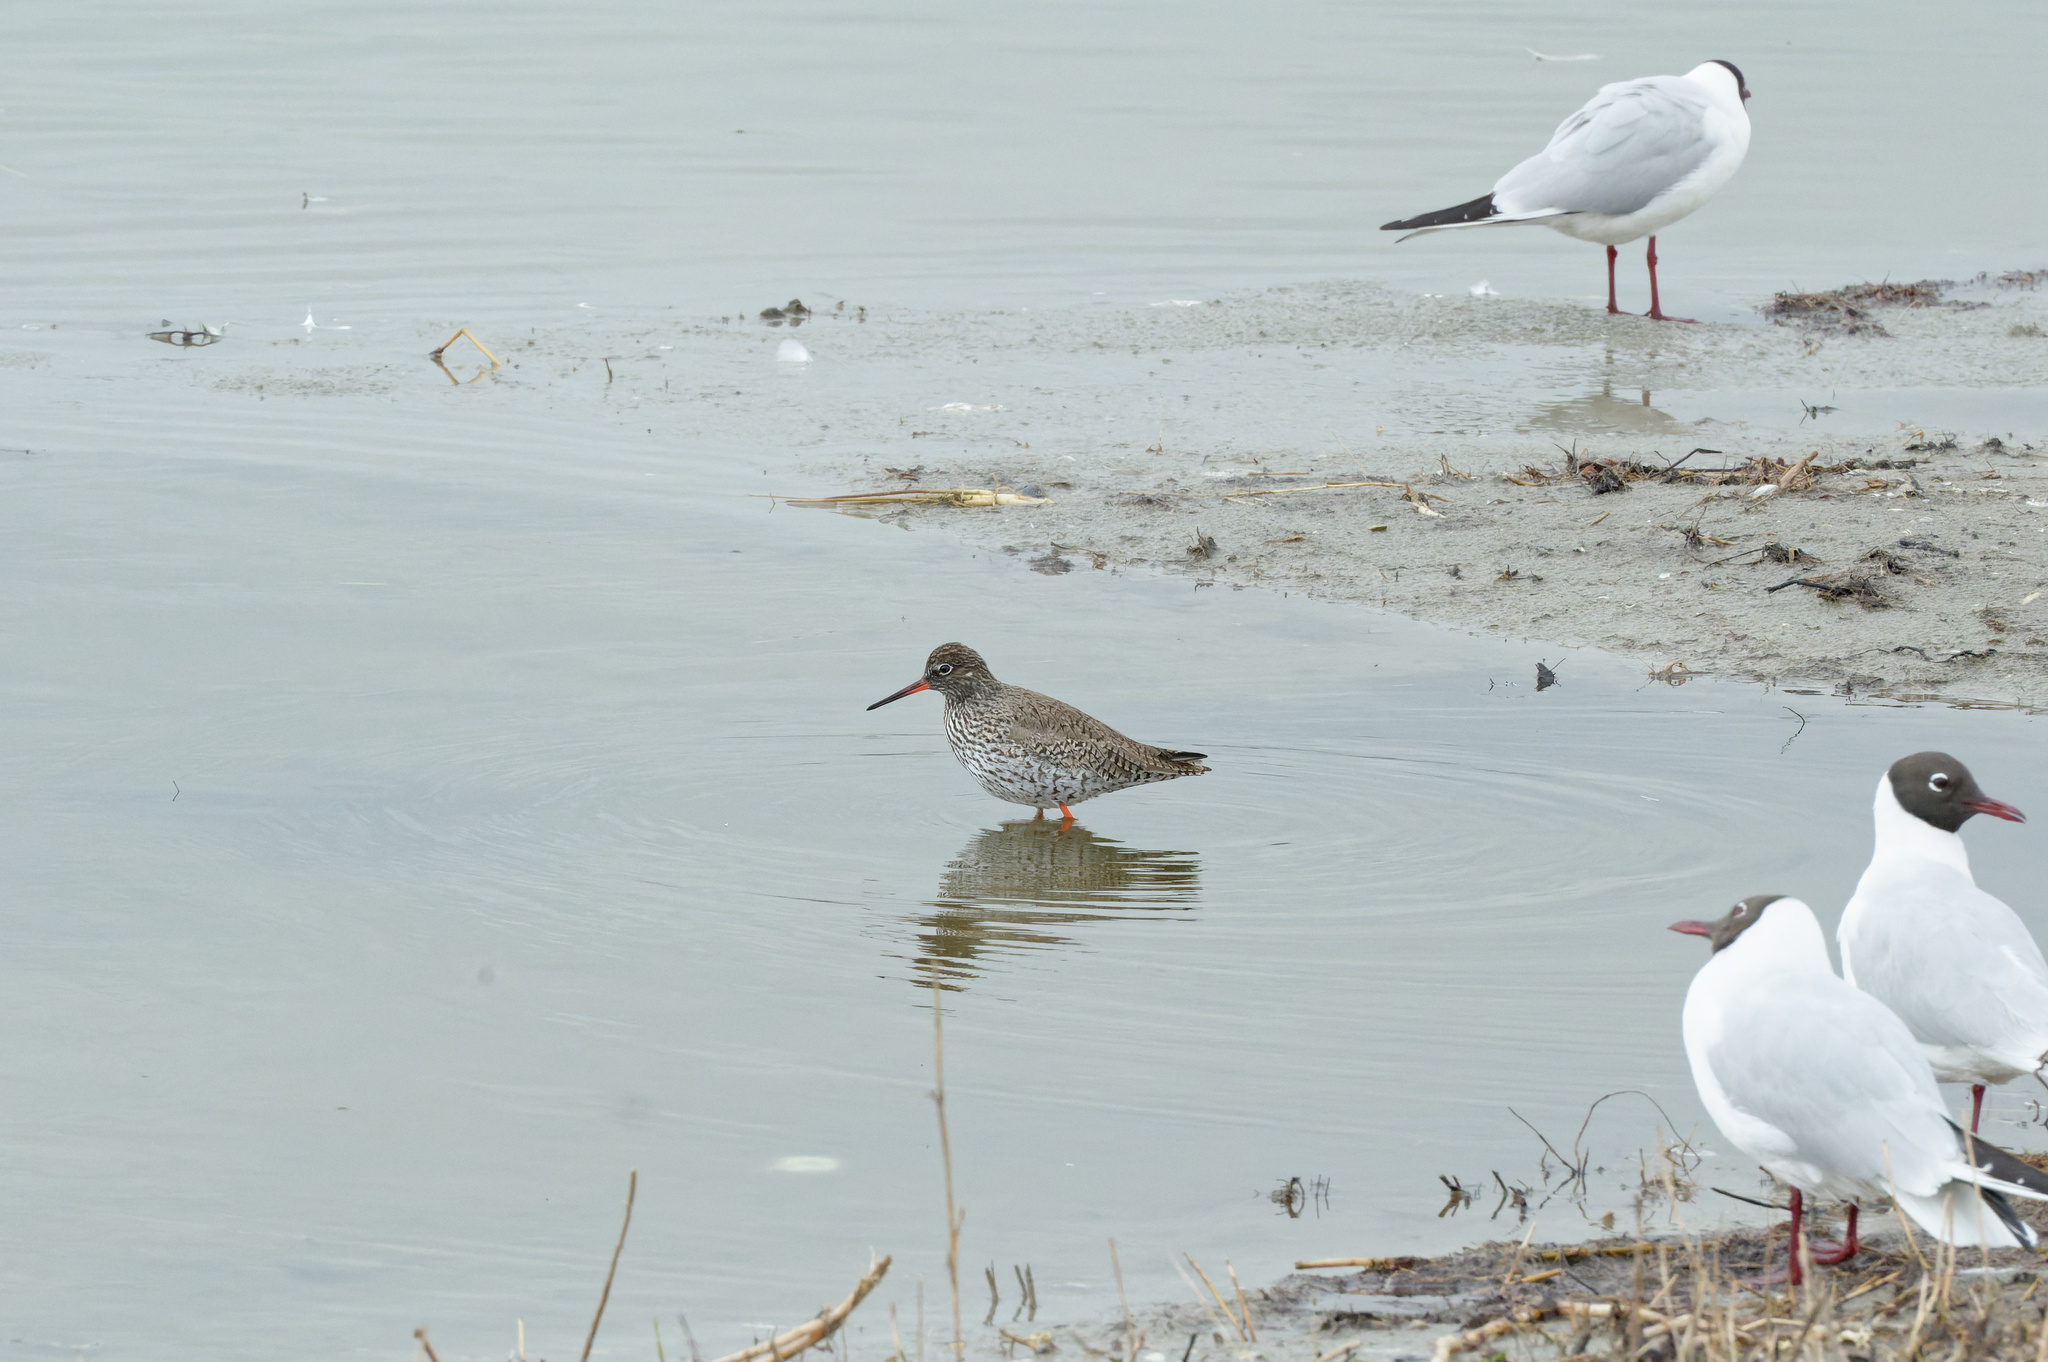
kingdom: Animalia
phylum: Chordata
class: Aves
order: Charadriiformes
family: Scolopacidae
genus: Tringa
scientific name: Tringa totanus
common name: Common redshank
